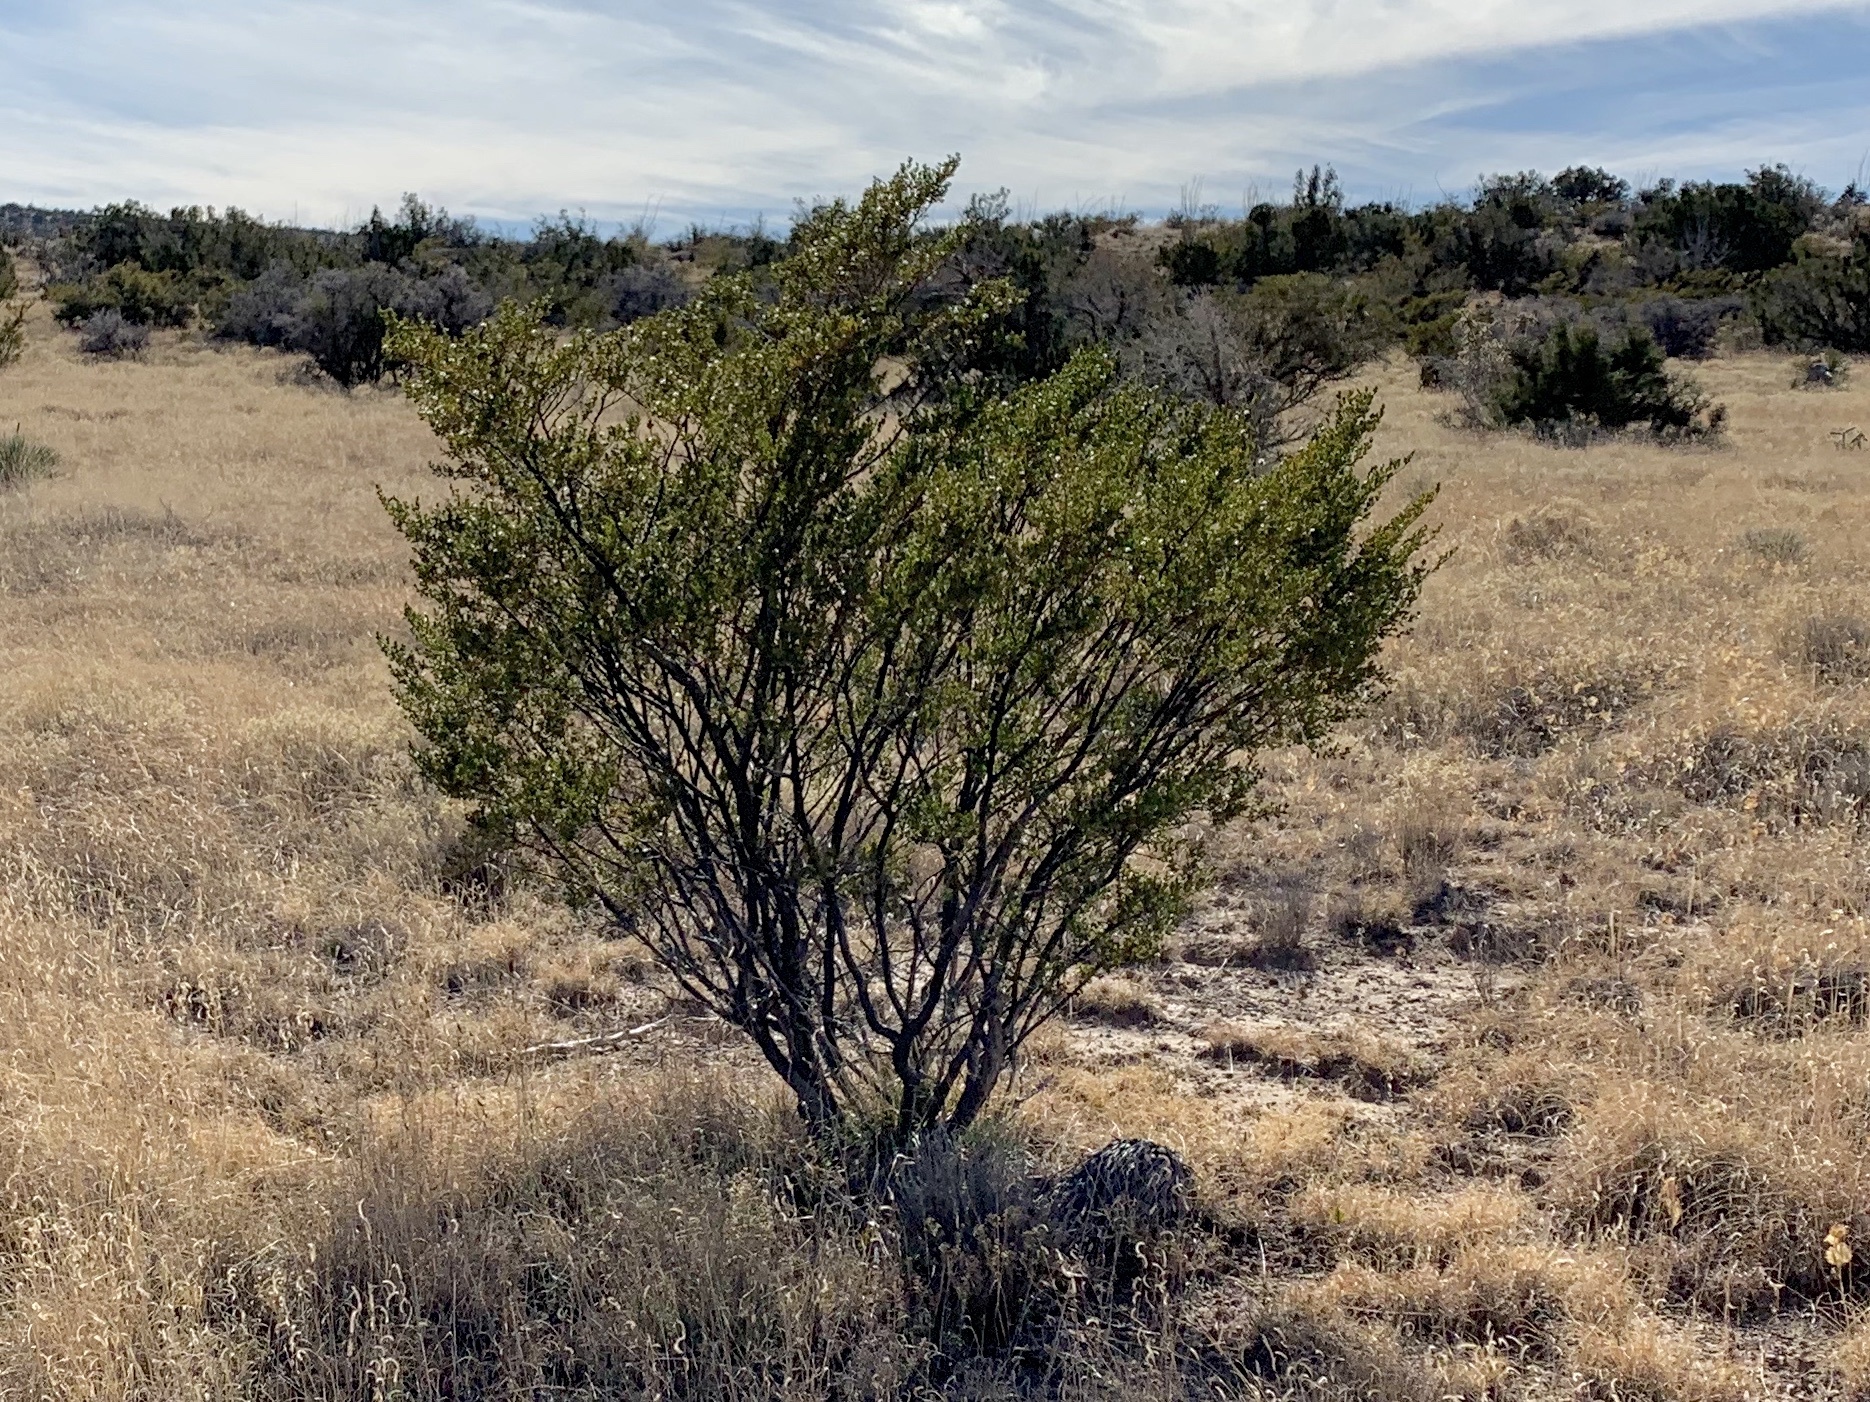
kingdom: Plantae
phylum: Tracheophyta
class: Magnoliopsida
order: Zygophyllales
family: Zygophyllaceae
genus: Larrea
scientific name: Larrea tridentata
